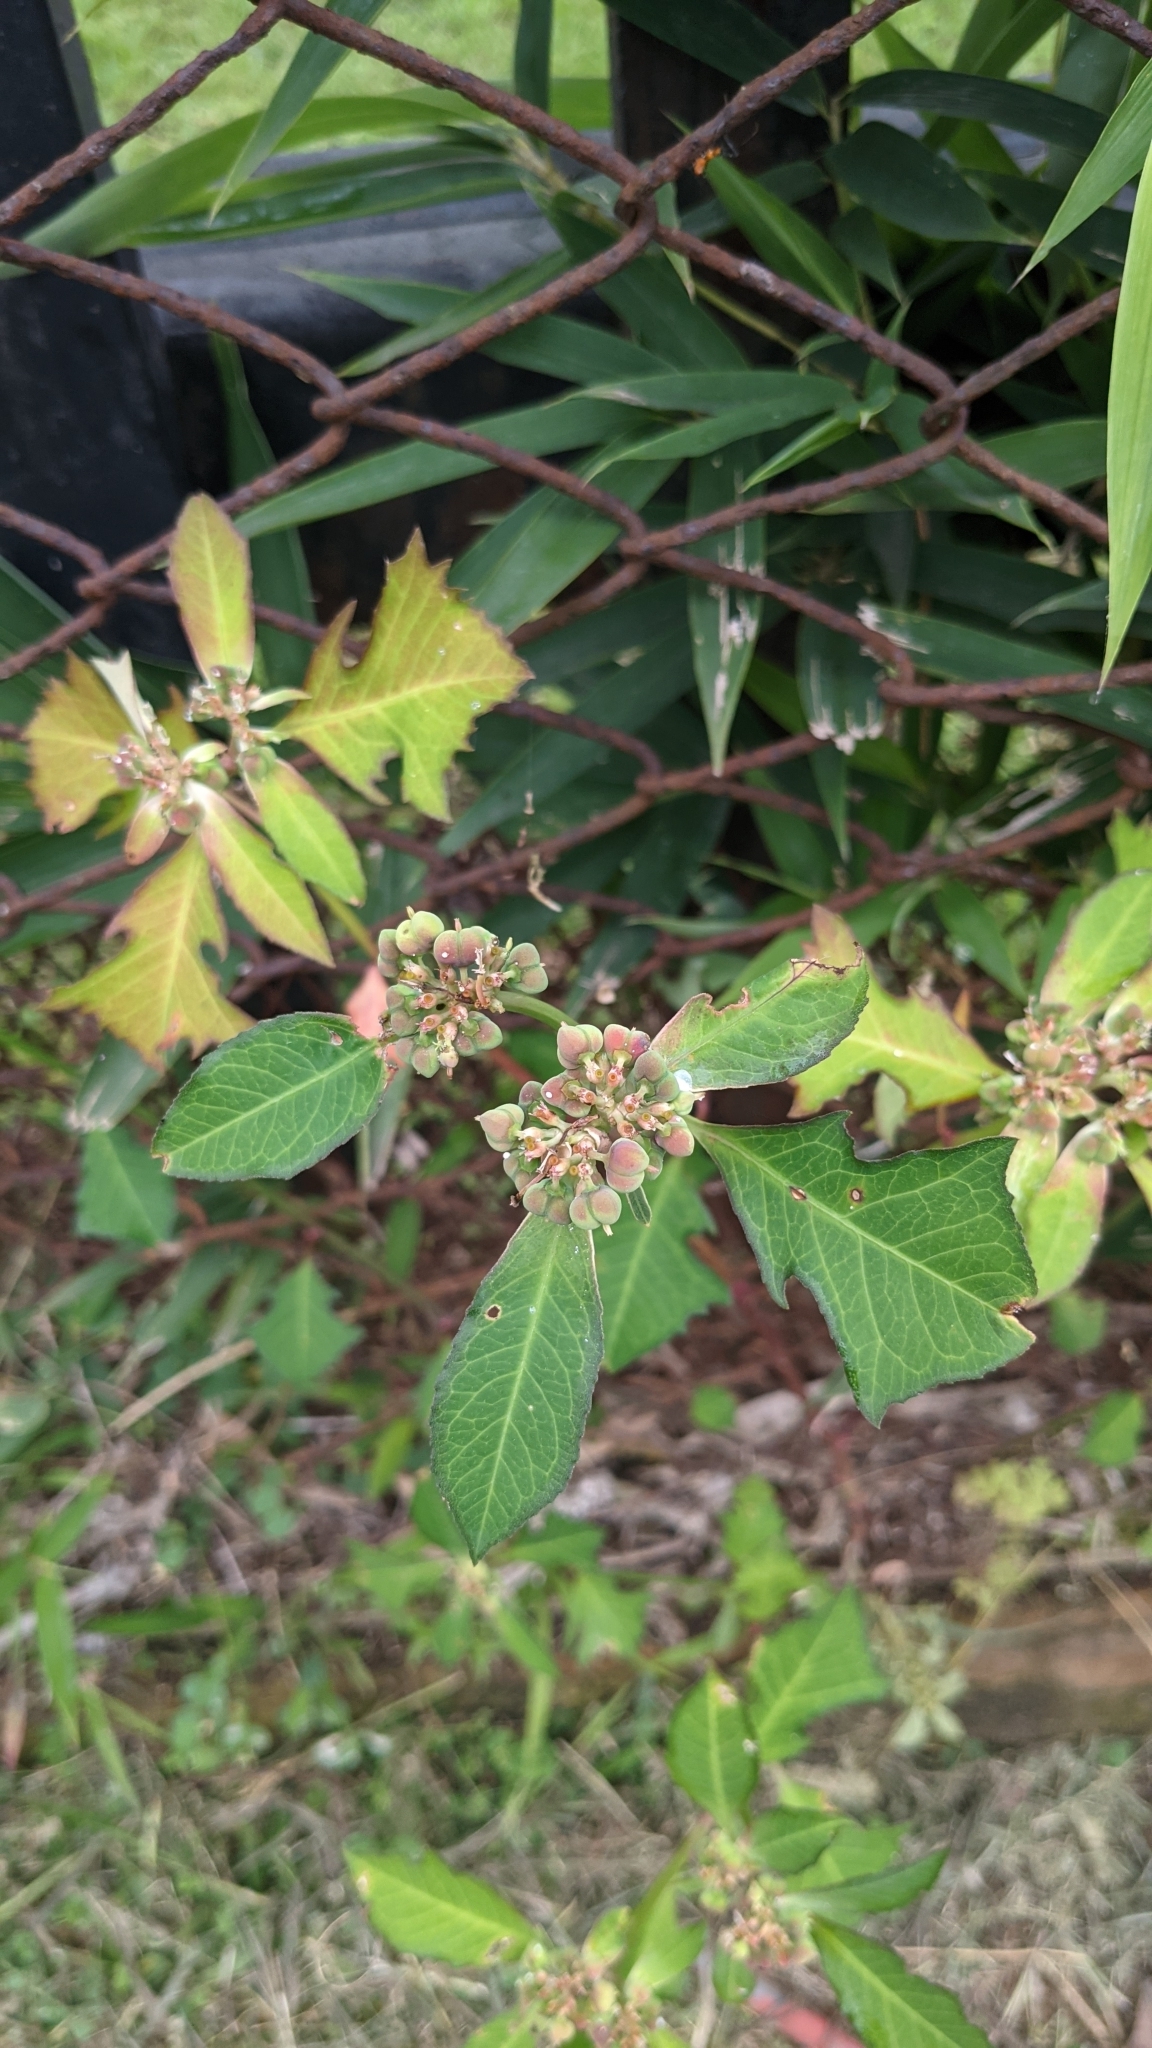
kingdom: Plantae
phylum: Tracheophyta
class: Magnoliopsida
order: Malpighiales
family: Euphorbiaceae
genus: Euphorbia
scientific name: Euphorbia heterophylla
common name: Mexican fireplant
